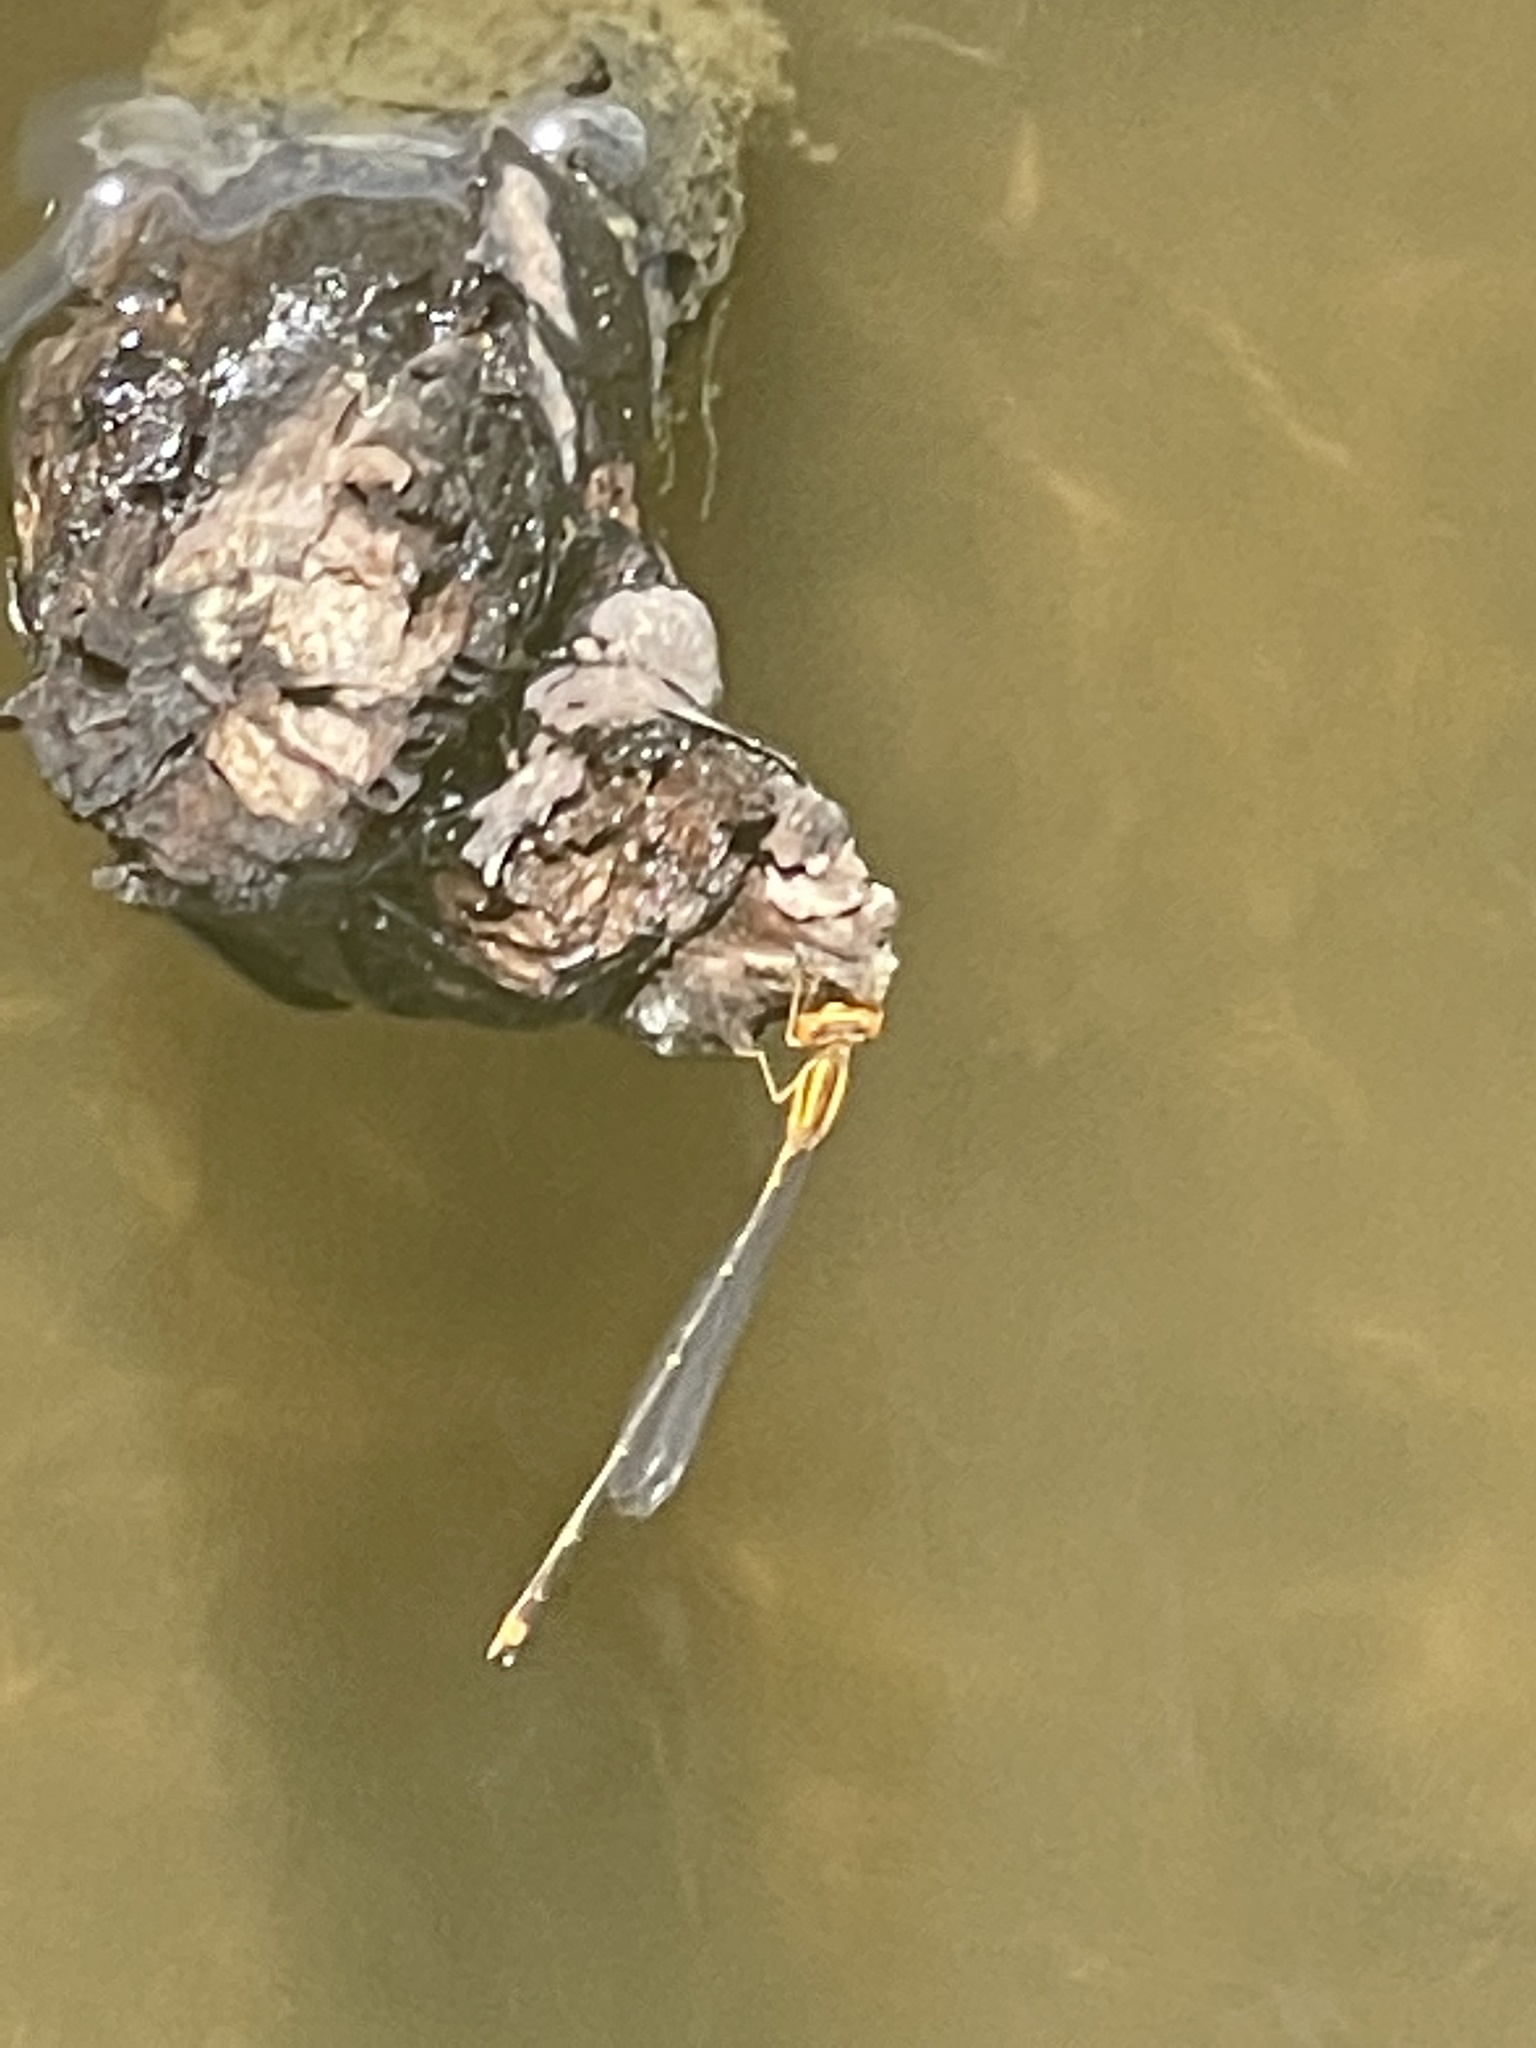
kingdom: Animalia
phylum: Arthropoda
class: Insecta
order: Odonata
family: Coenagrionidae
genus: Enallagma
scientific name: Enallagma signatum
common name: Orange bluet
